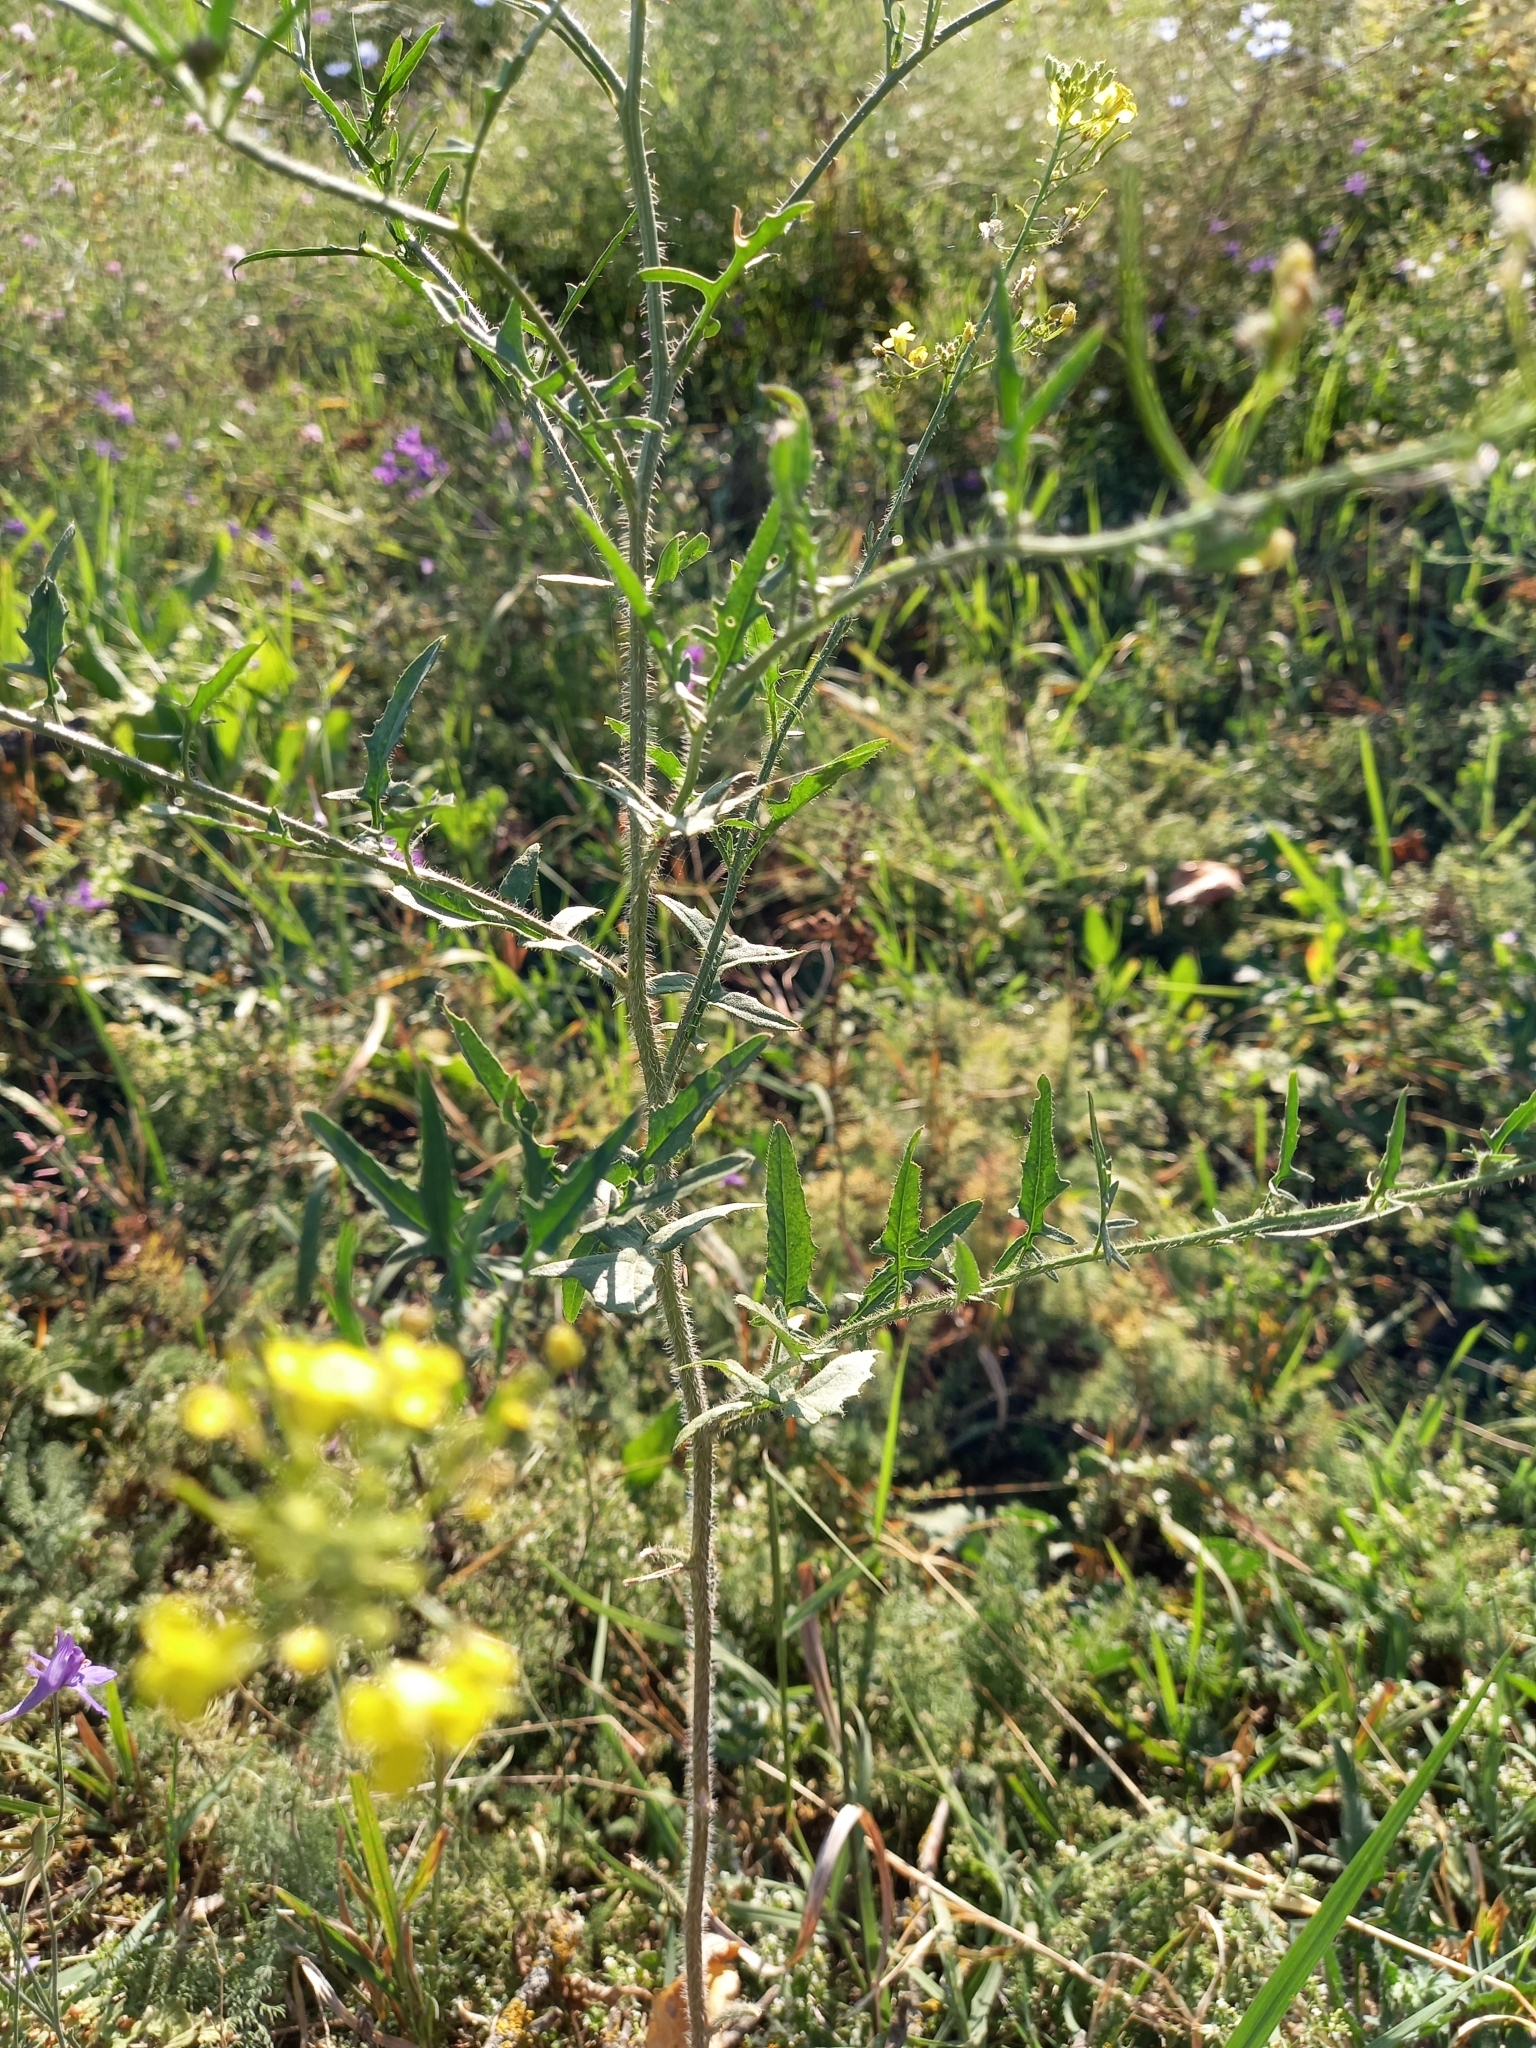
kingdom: Plantae
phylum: Tracheophyta
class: Magnoliopsida
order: Brassicales
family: Brassicaceae
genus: Sisymbrium
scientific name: Sisymbrium loeselii
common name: False london-rocket
